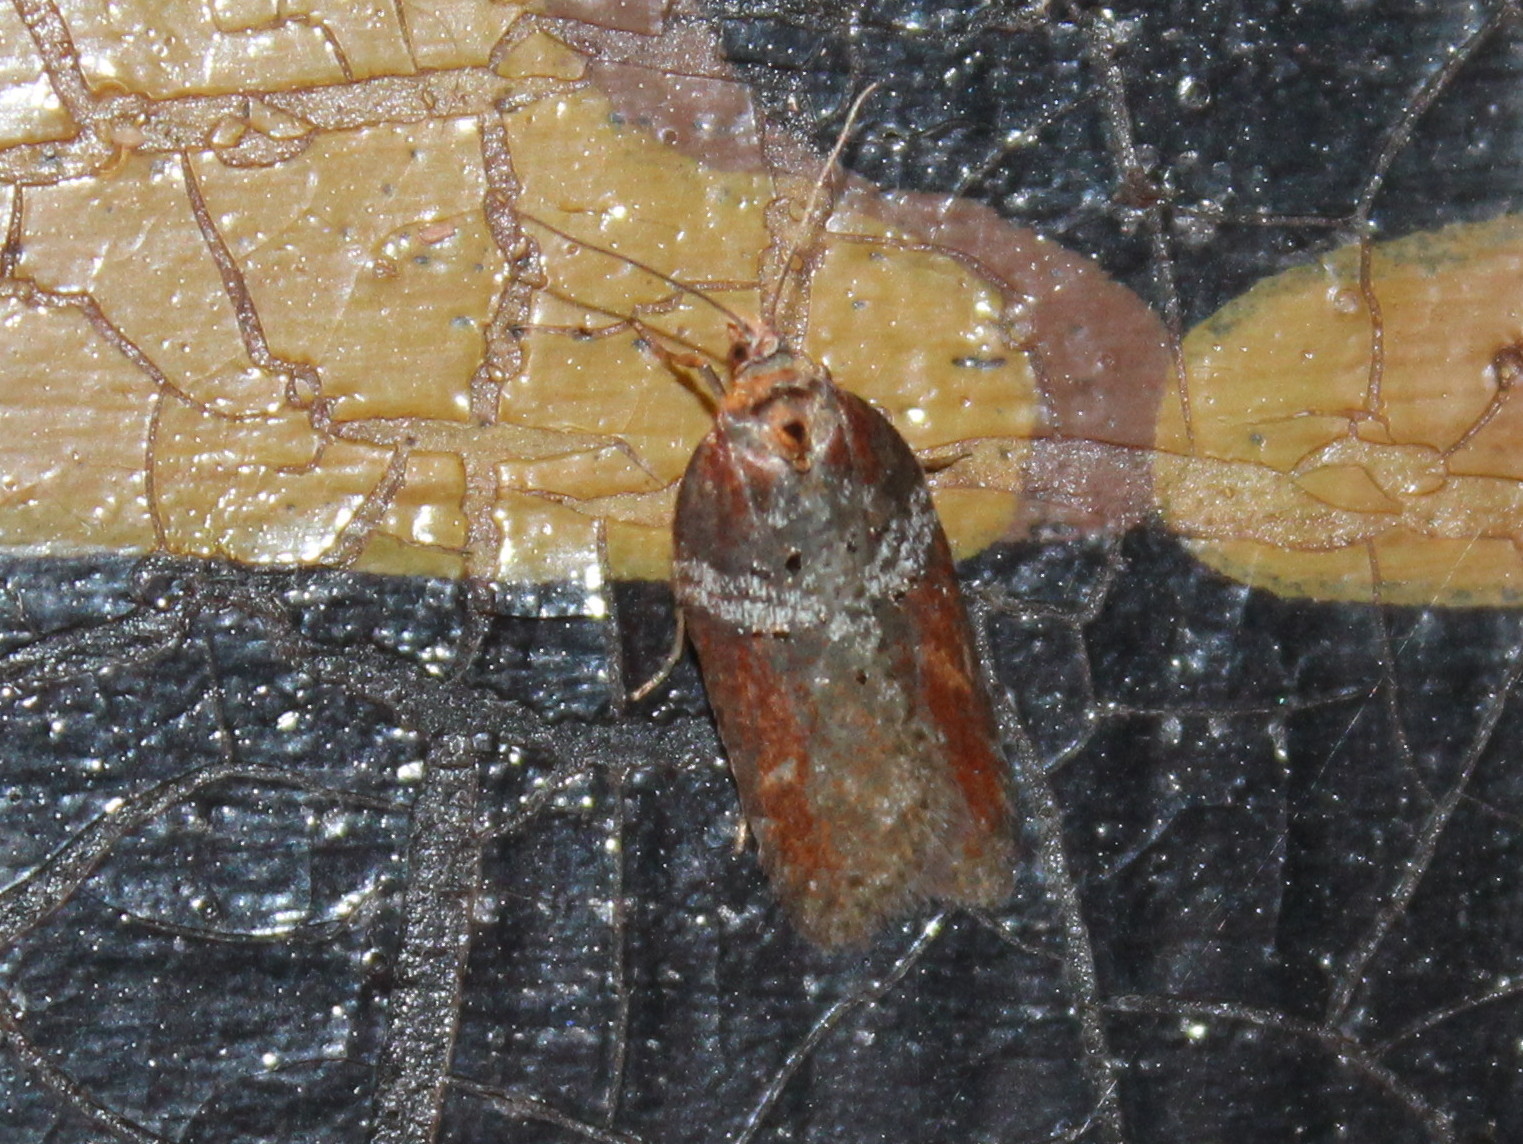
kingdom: Animalia
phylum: Arthropoda
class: Insecta
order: Lepidoptera
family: Tortricidae
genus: Acleris
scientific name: Acleris celiana
